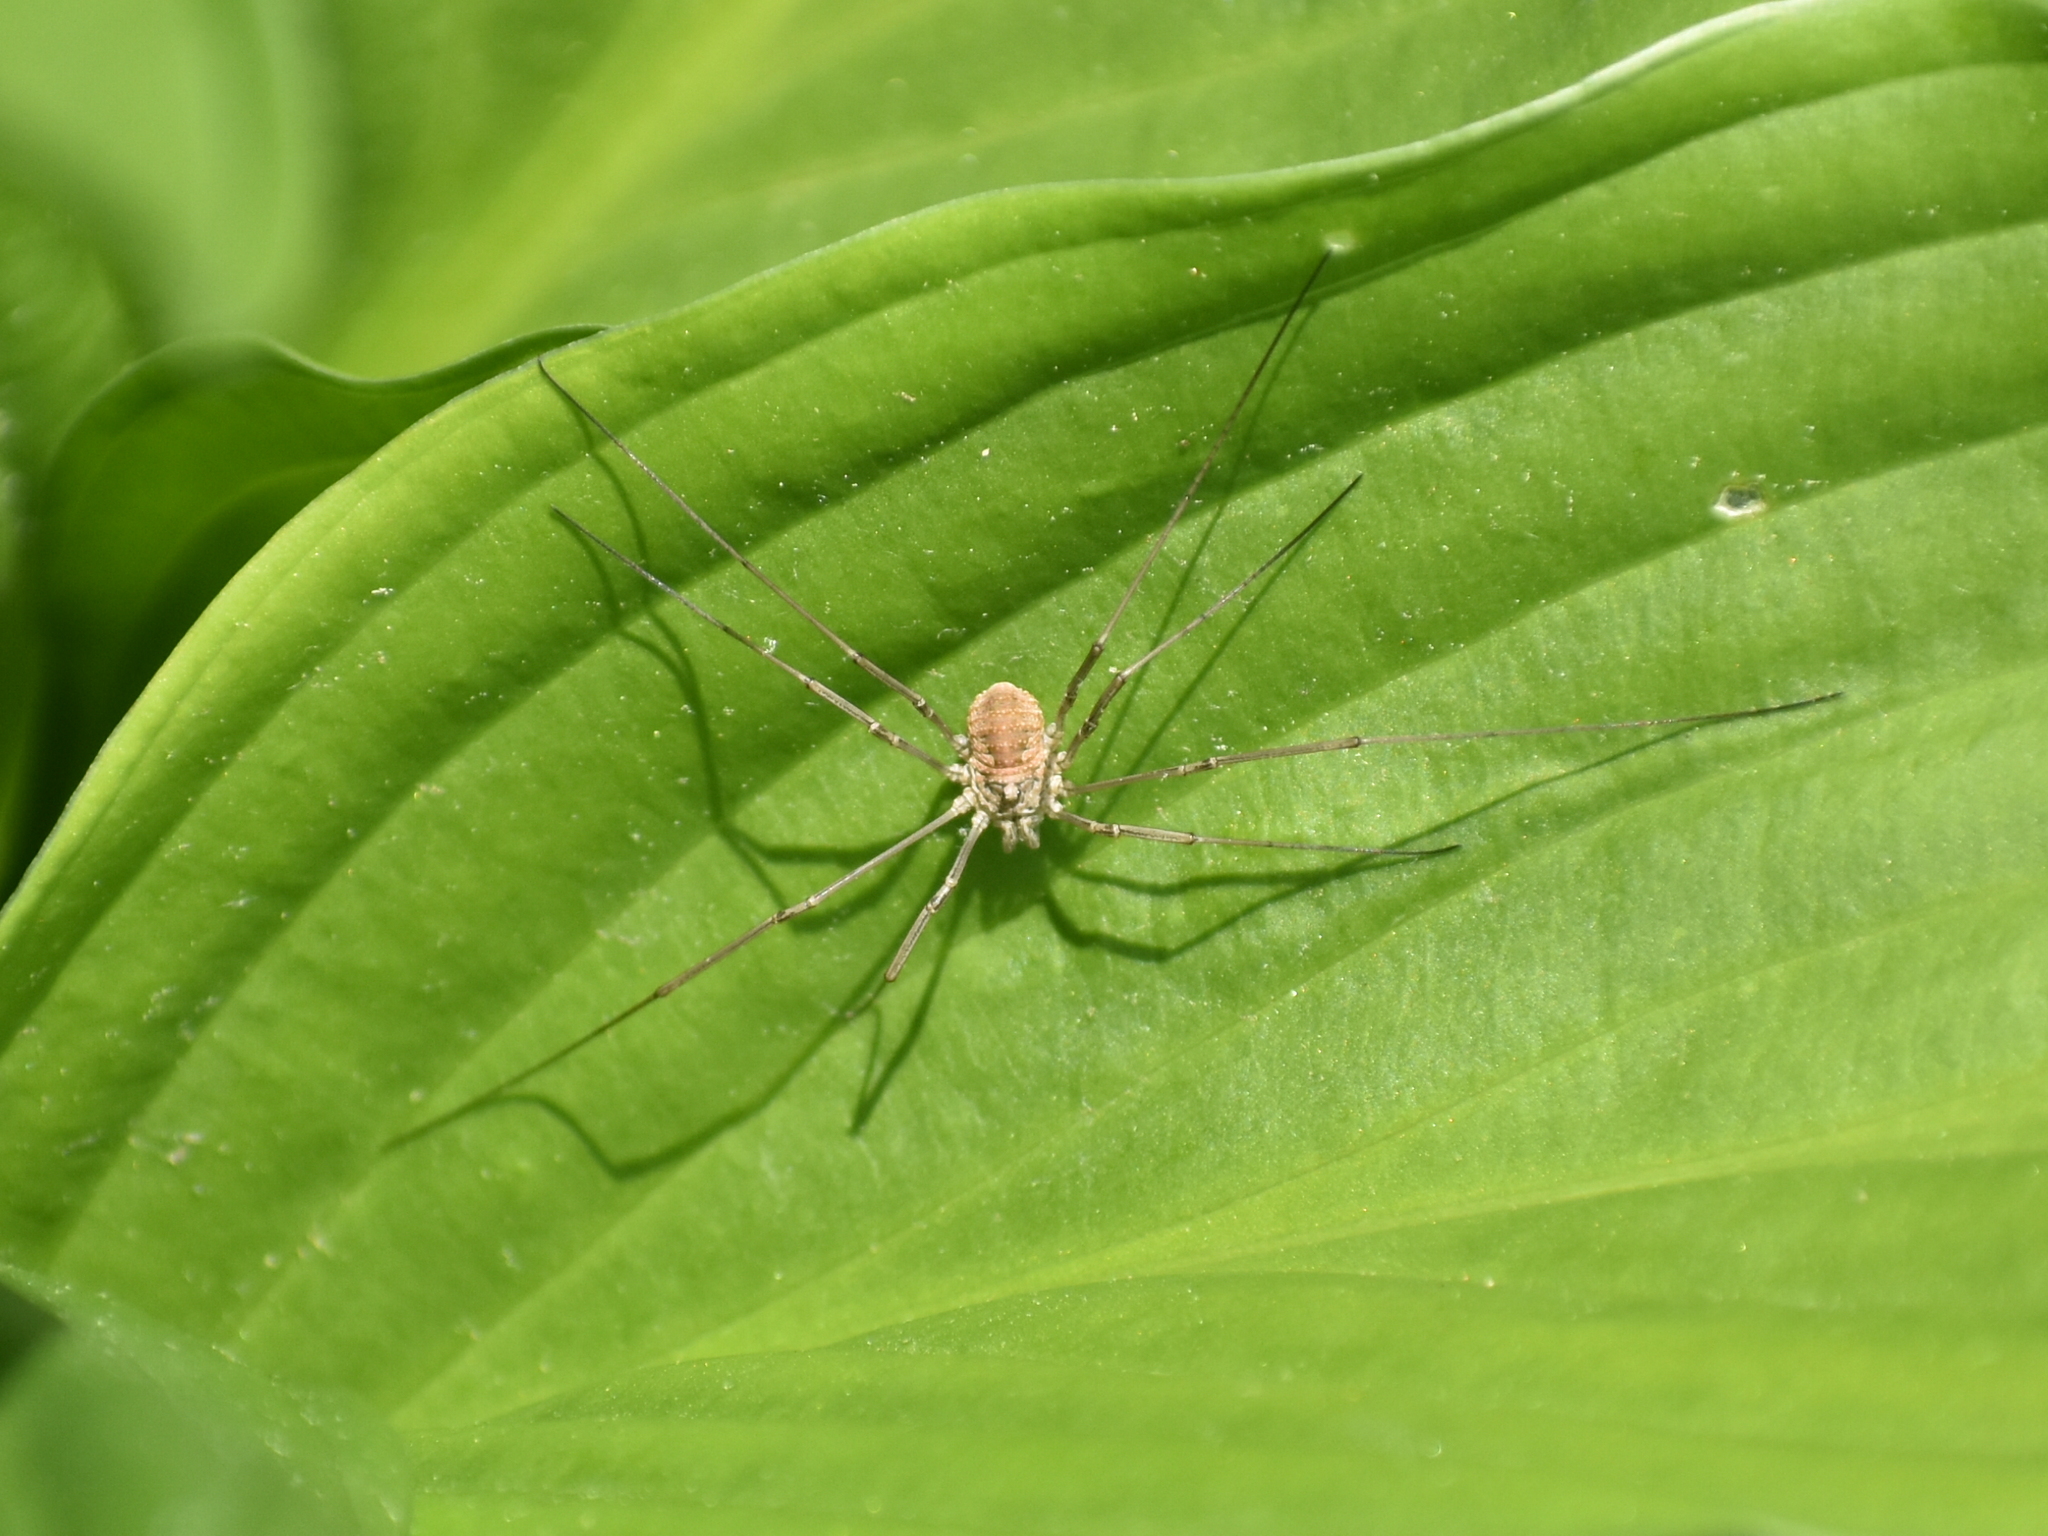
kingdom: Animalia
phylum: Arthropoda
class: Arachnida
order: Opiliones
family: Phalangiidae
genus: Phalangium
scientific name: Phalangium opilio
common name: Daddy longleg
